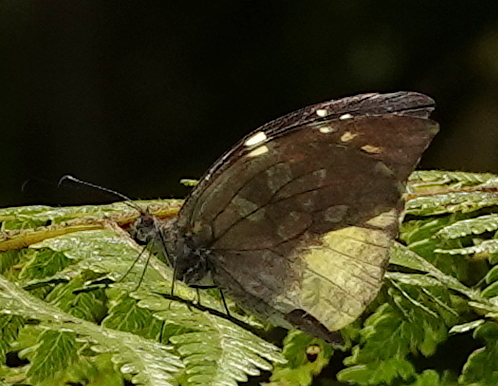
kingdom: Animalia
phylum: Arthropoda
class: Insecta
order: Lepidoptera
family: Pieridae
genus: Lieinix
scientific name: Lieinix nemesis
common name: Frosted mimic-white
